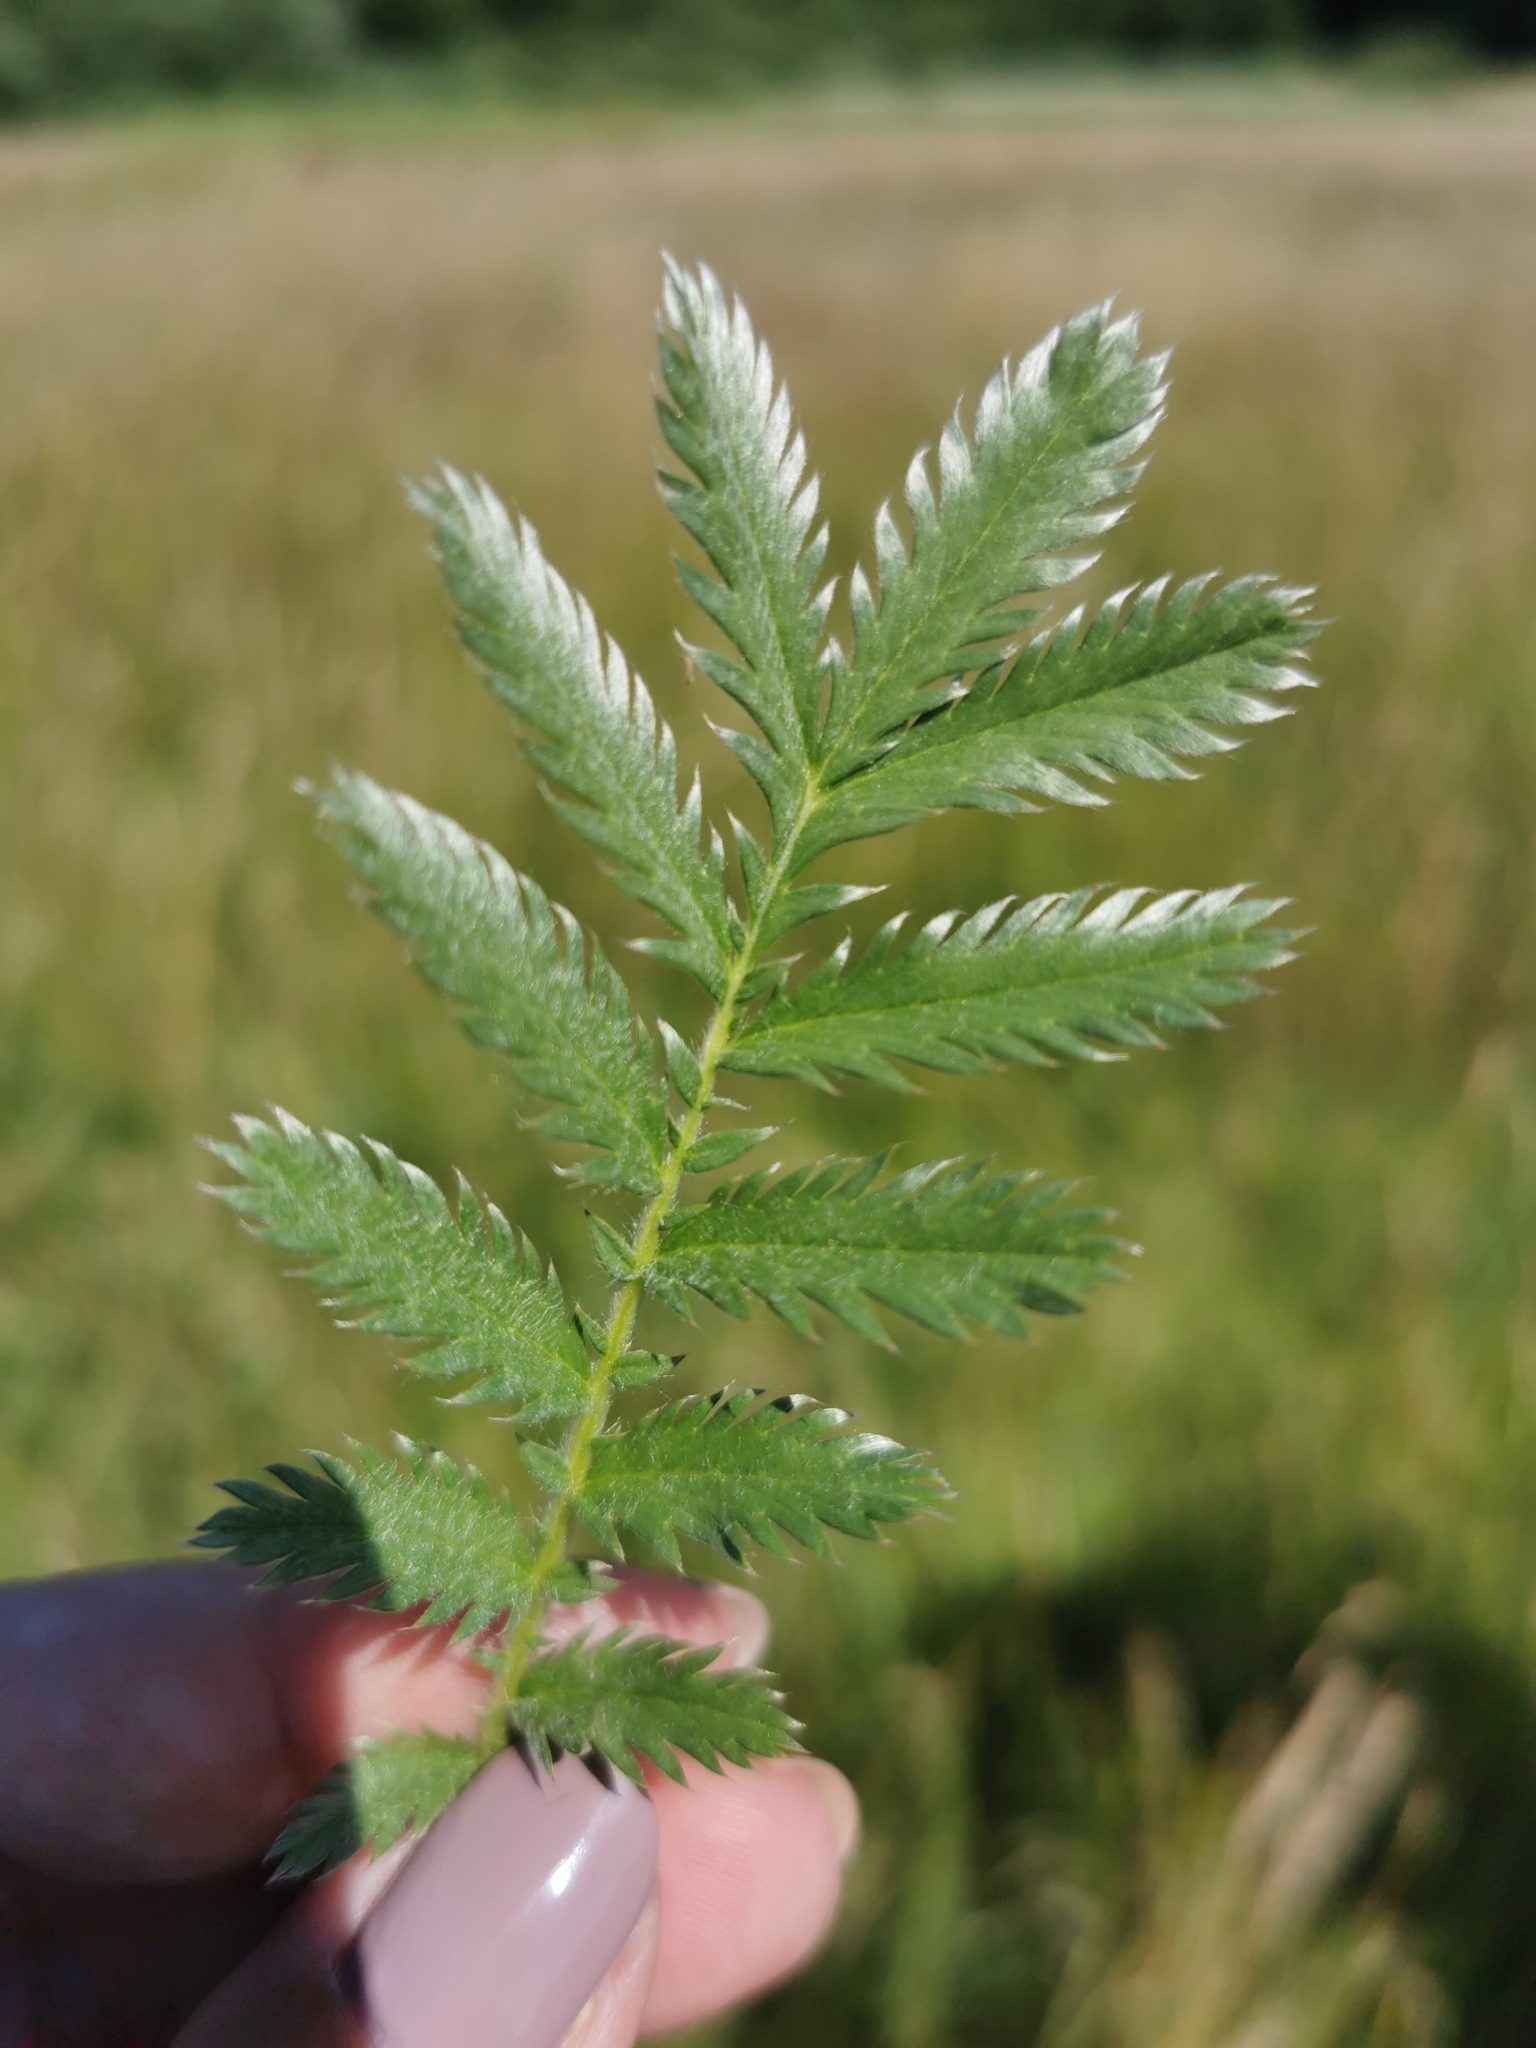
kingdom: Plantae
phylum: Tracheophyta
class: Magnoliopsida
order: Rosales
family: Rosaceae
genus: Argentina
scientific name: Argentina anserina
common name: Common silverweed
